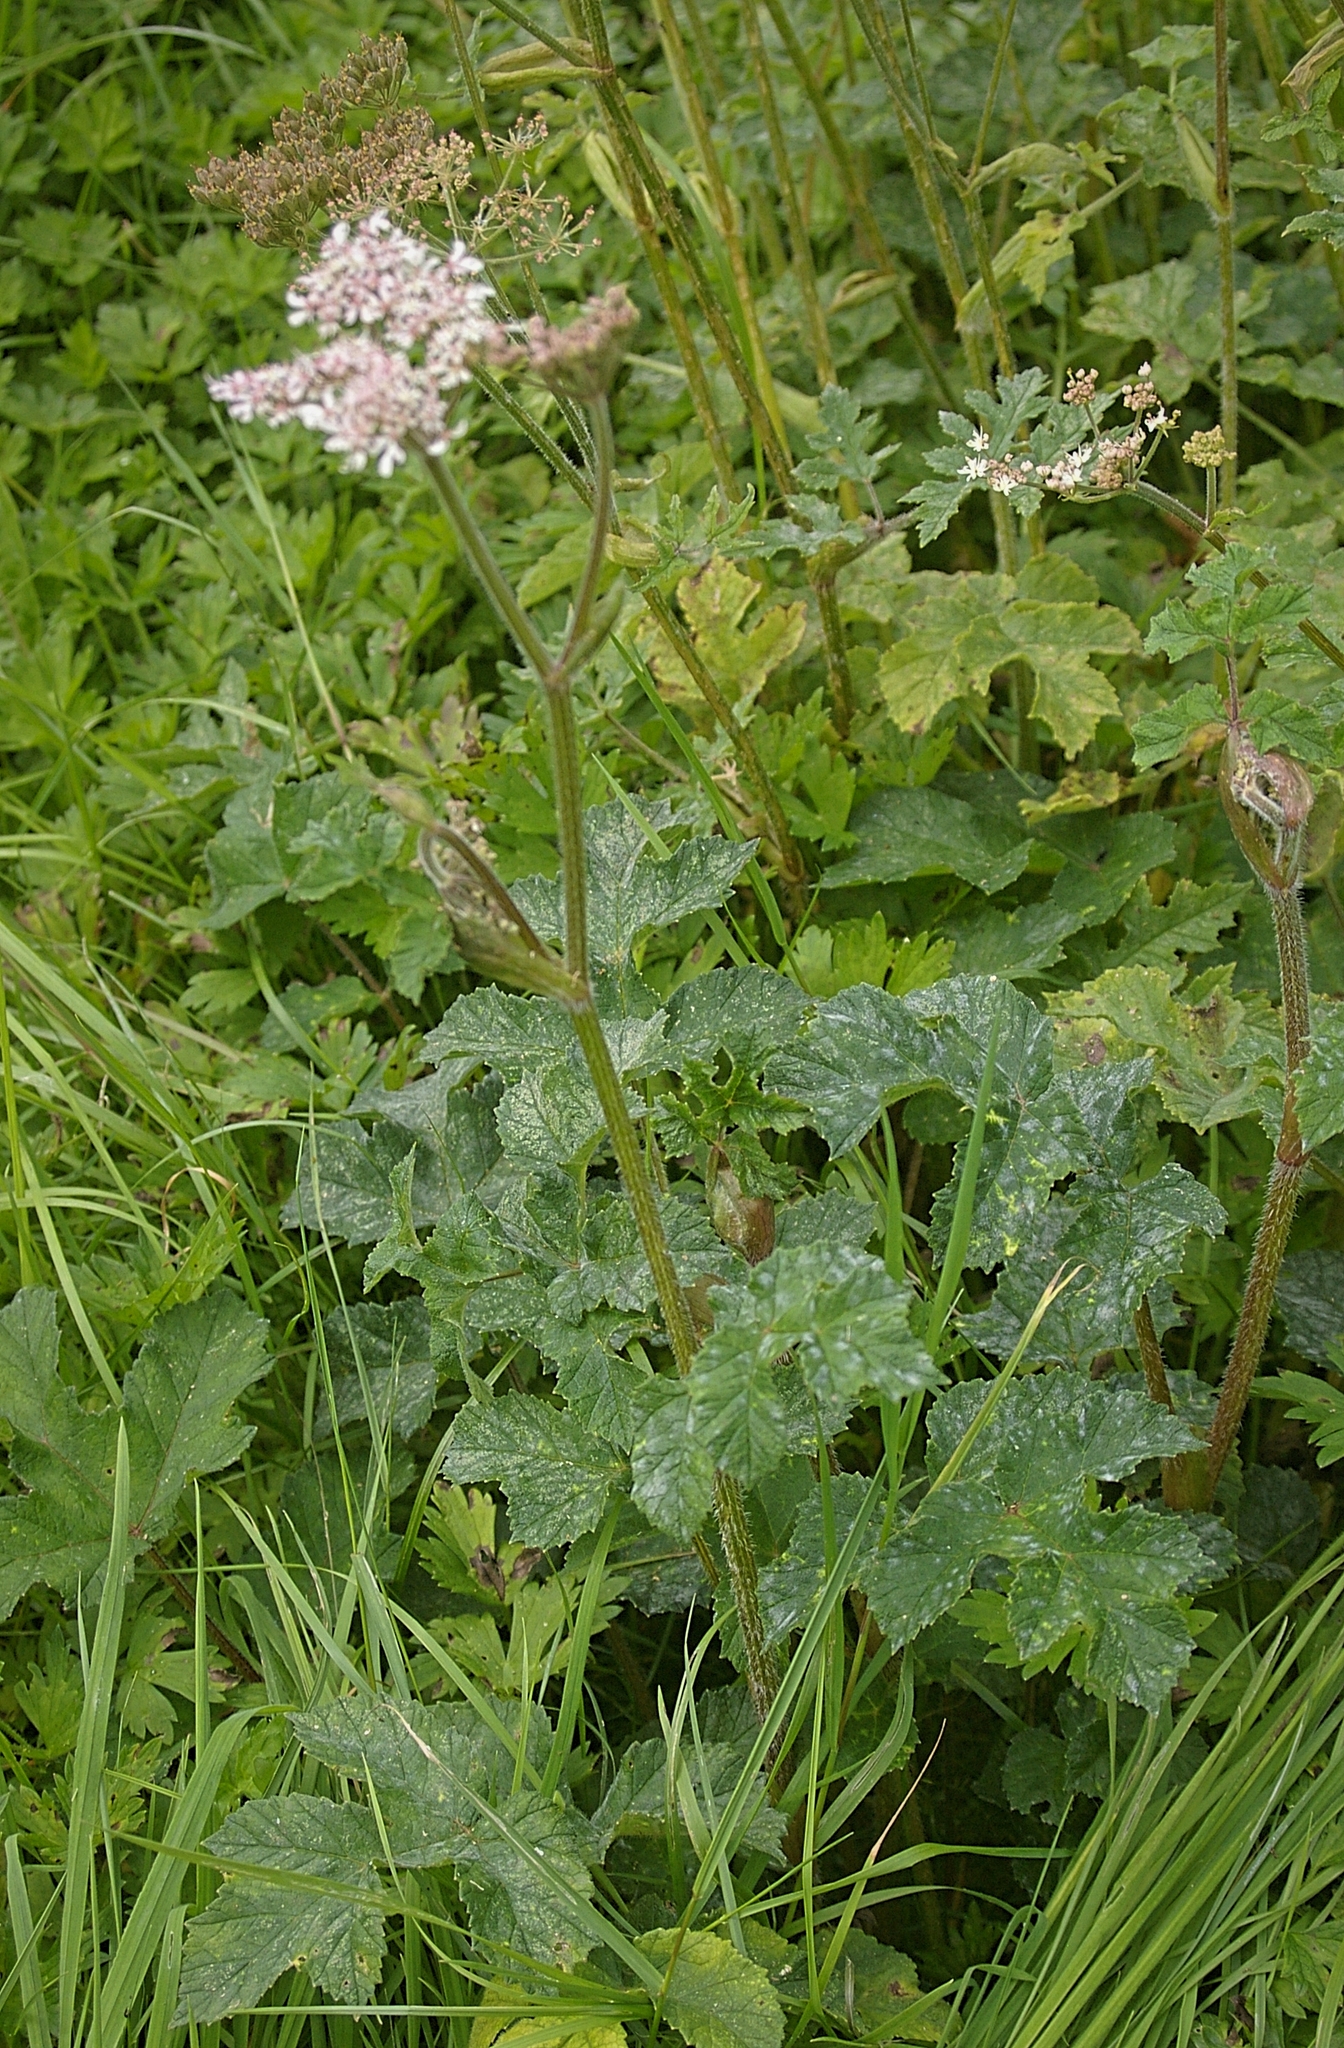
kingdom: Plantae
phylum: Tracheophyta
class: Magnoliopsida
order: Apiales
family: Apiaceae
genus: Heracleum
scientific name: Heracleum sphondylium
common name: Hogweed
